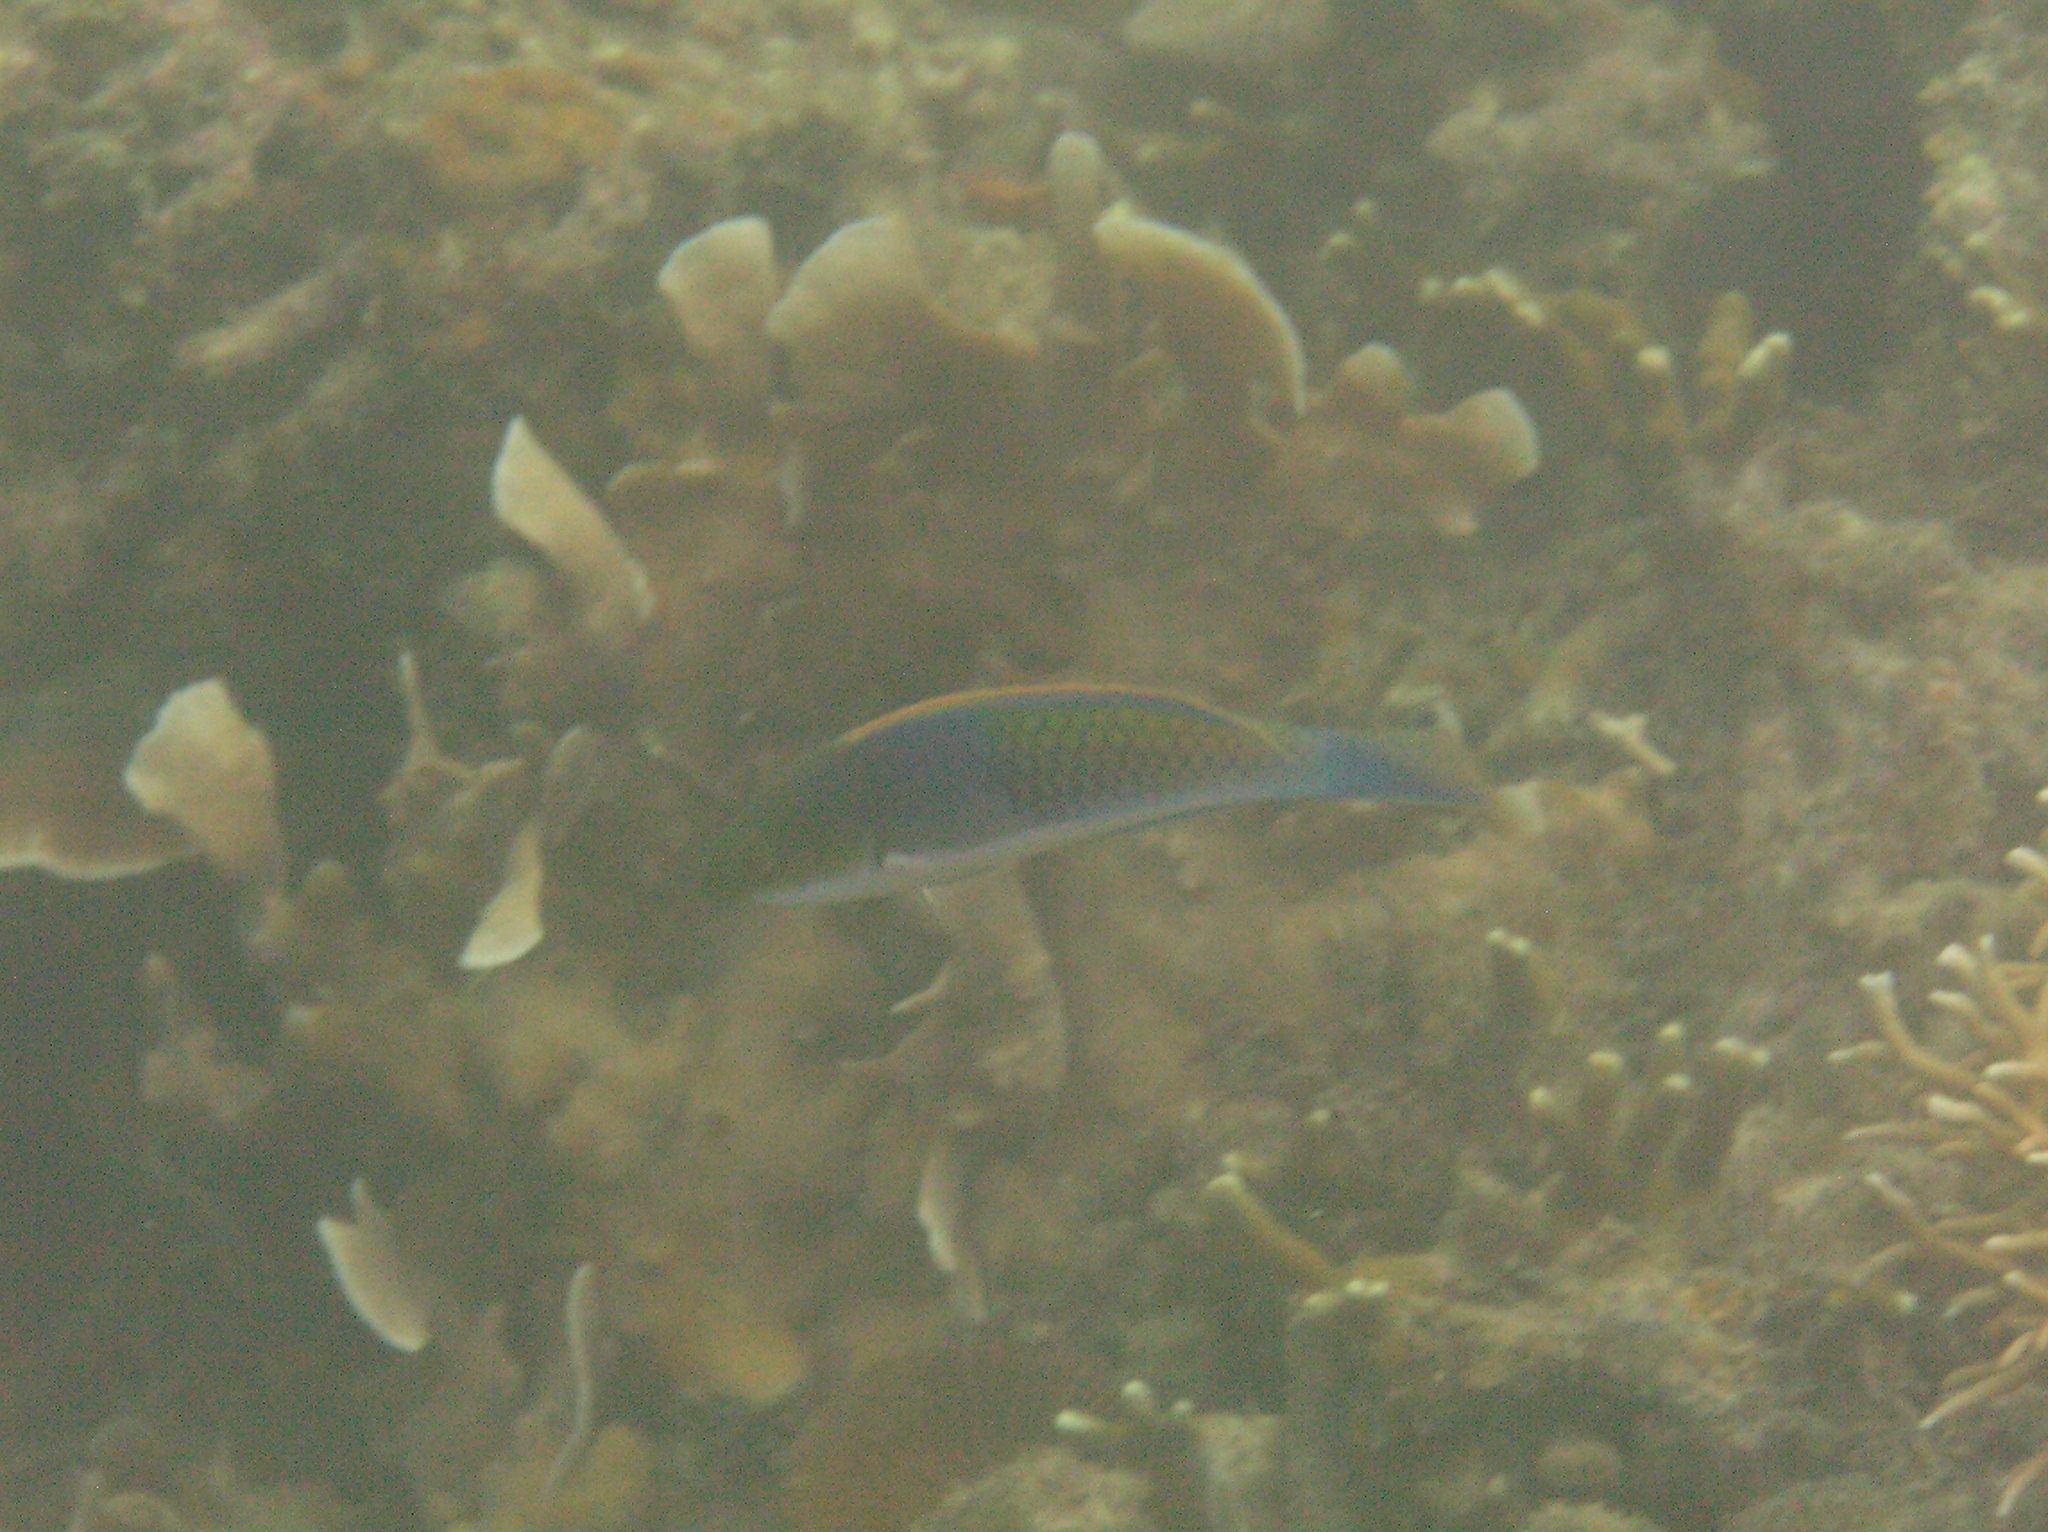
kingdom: Animalia
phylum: Chordata
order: Perciformes
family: Labridae
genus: Cirrhilabrus
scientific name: Cirrhilabrus cyanopleura
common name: Coralline wrasse
